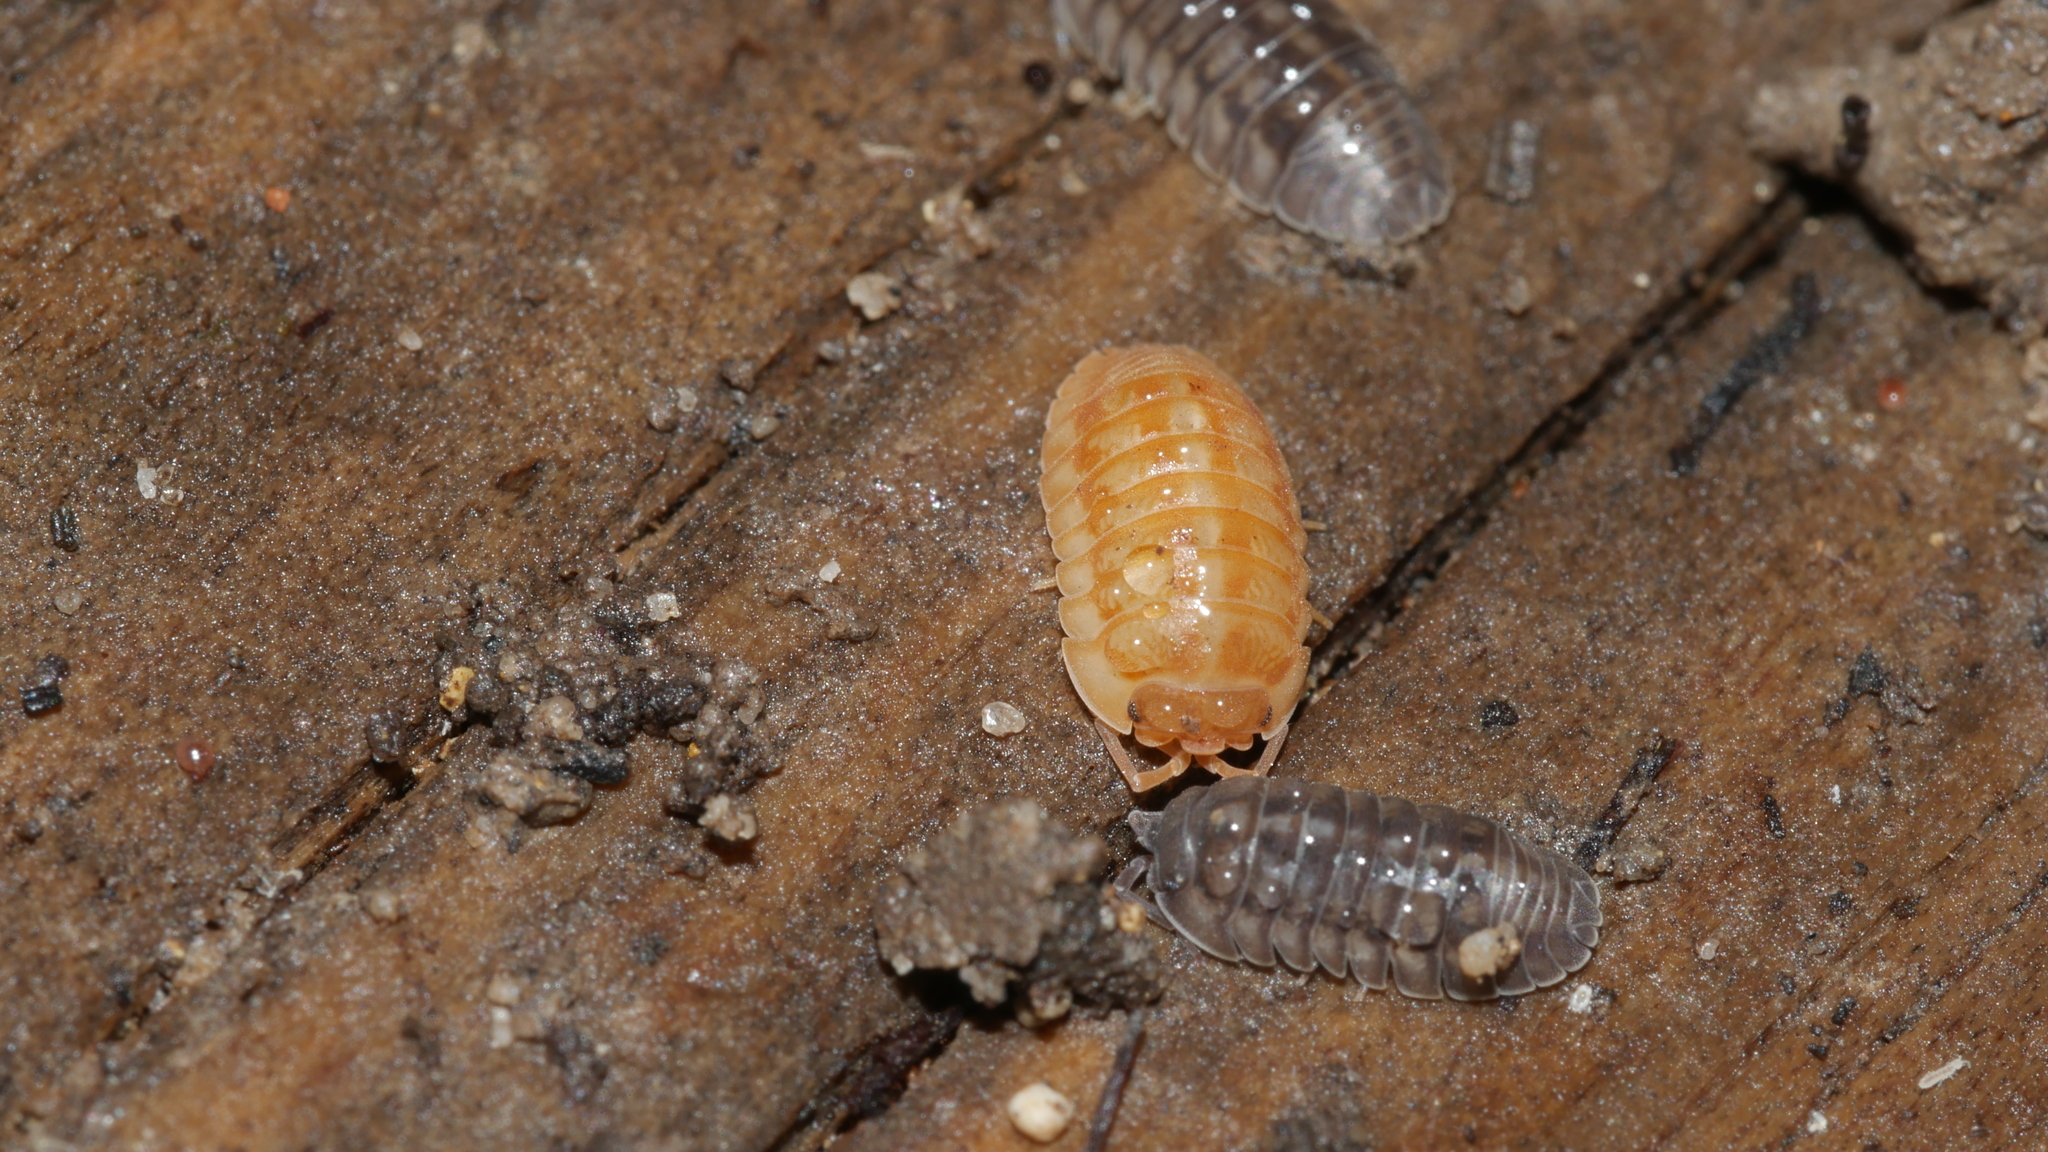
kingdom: Animalia
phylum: Arthropoda
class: Malacostraca
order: Isopoda
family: Armadillidiidae
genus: Armadillidium
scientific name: Armadillidium nasatum
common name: Isopod
